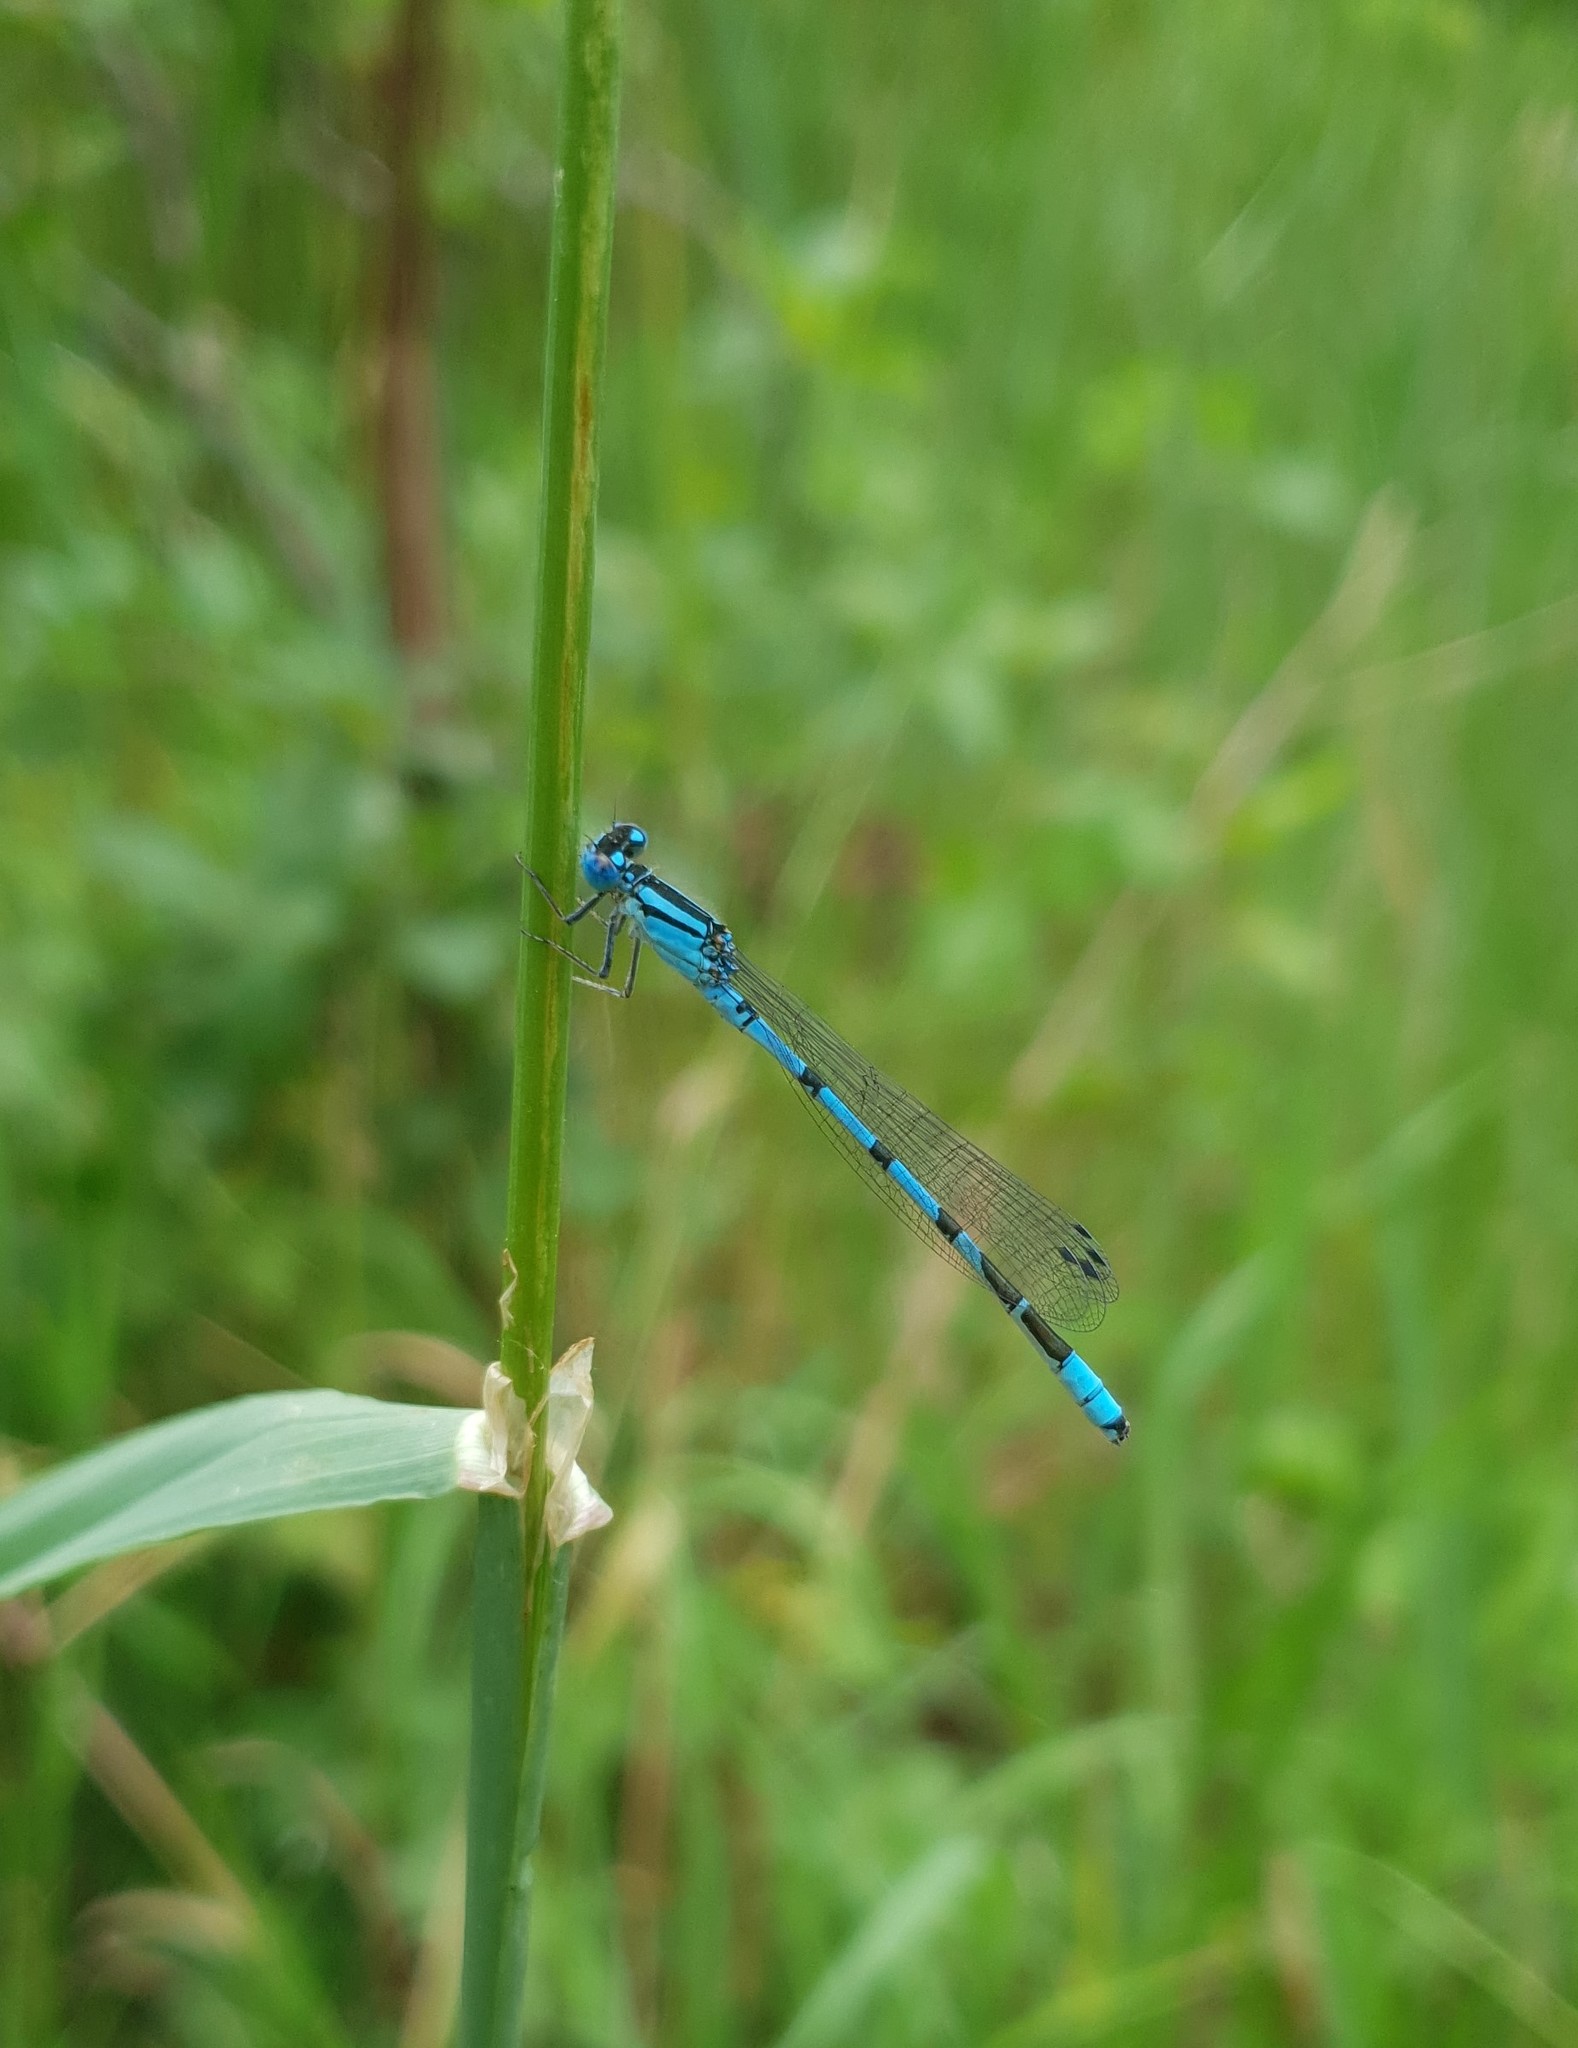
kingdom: Animalia
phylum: Arthropoda
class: Insecta
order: Odonata
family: Coenagrionidae
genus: Enallagma
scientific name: Enallagma cyathigerum
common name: Common blue damselfly
